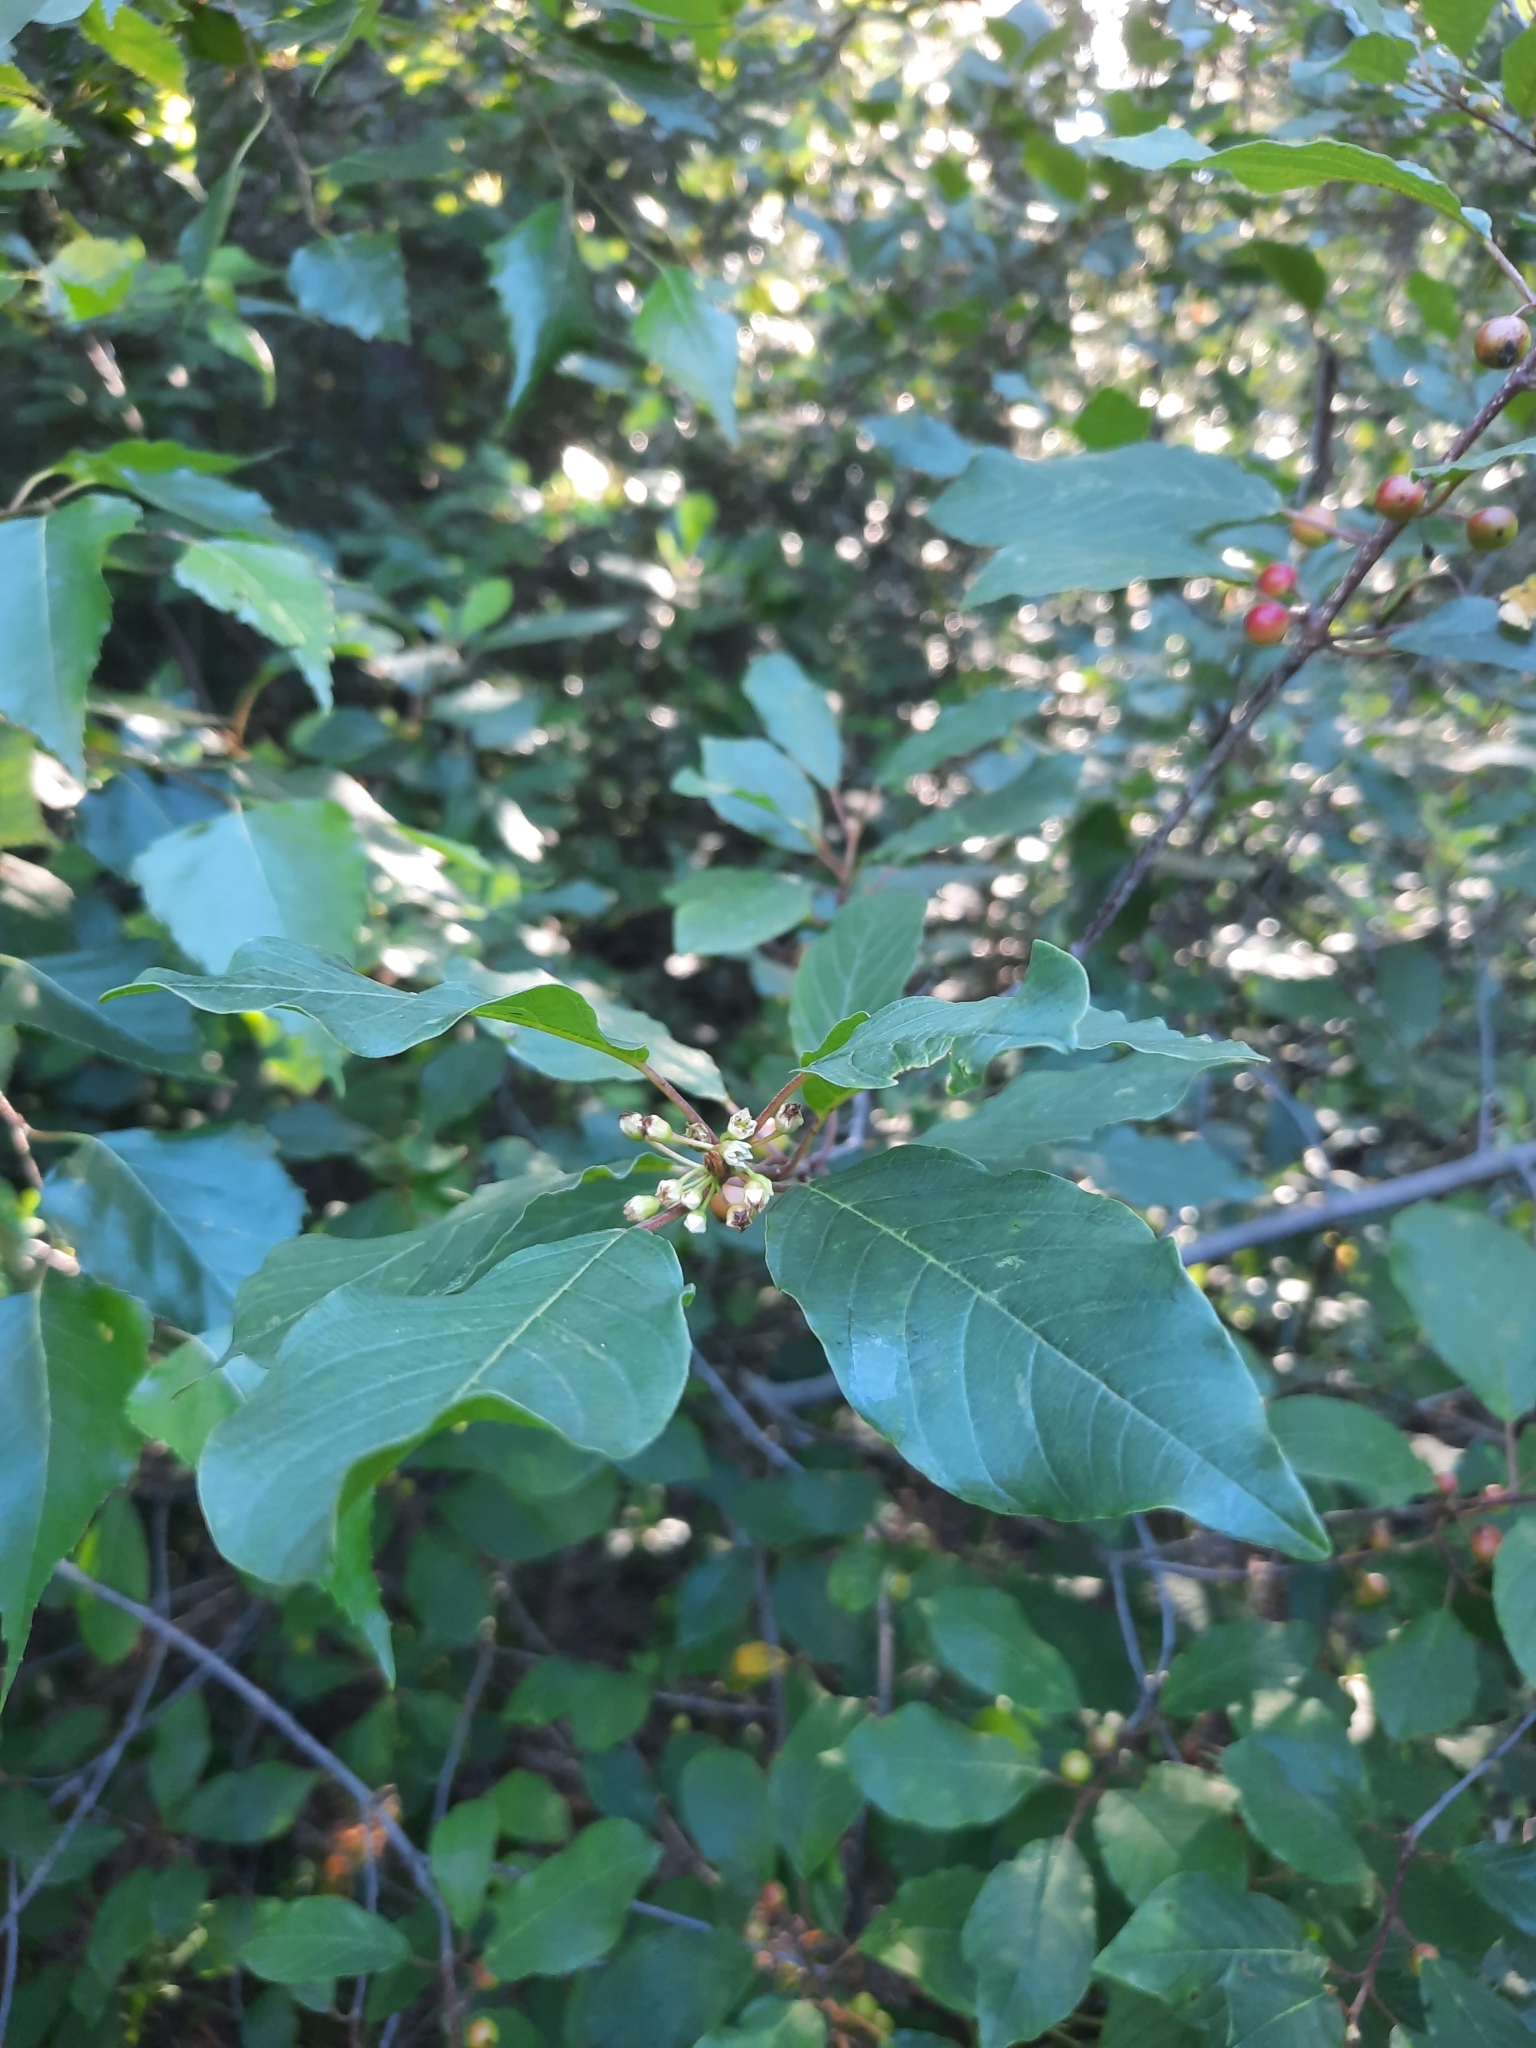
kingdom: Plantae
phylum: Tracheophyta
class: Magnoliopsida
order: Rosales
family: Rhamnaceae
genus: Frangula
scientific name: Frangula alnus
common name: Alder buckthorn
